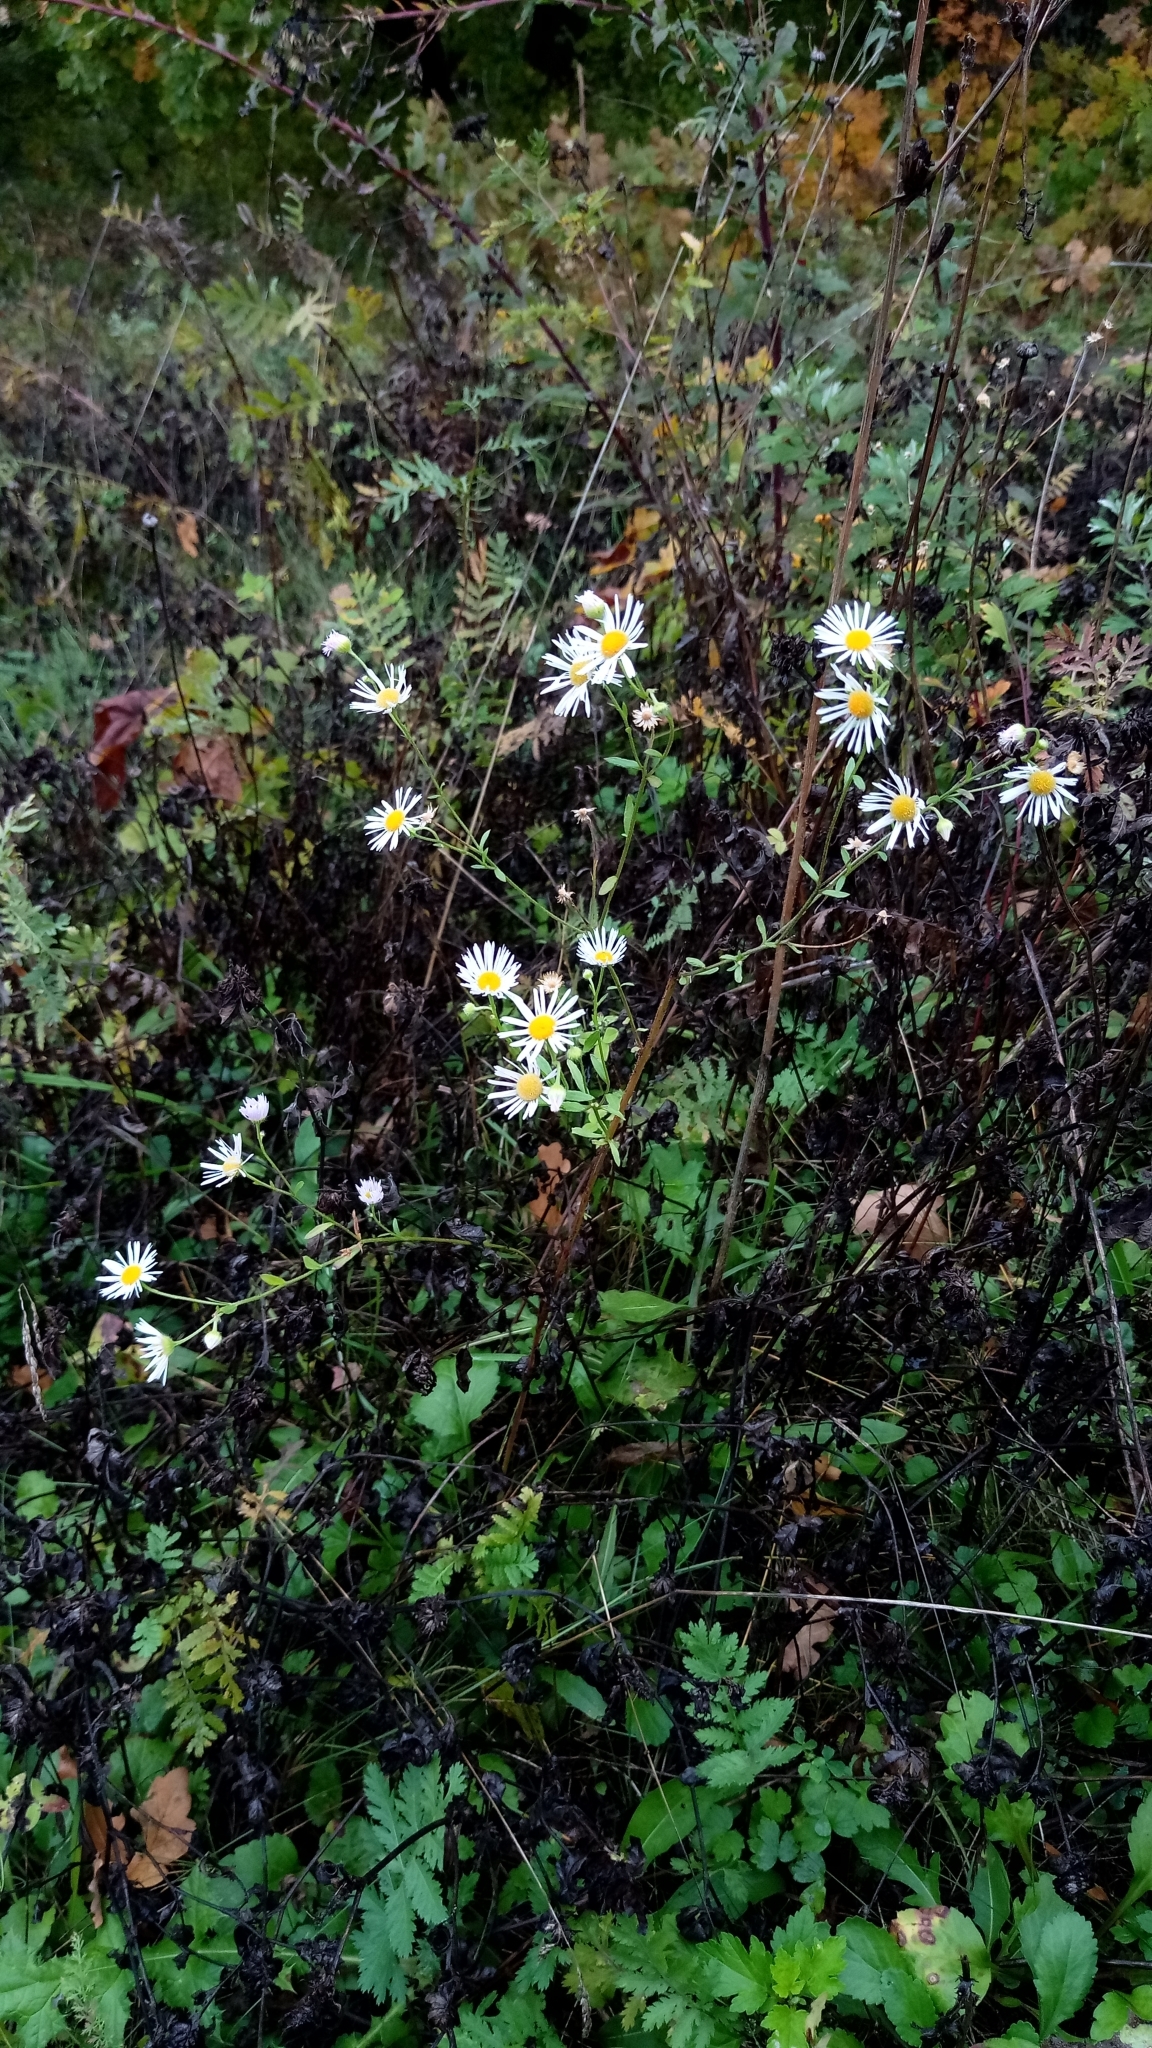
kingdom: Plantae
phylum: Tracheophyta
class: Magnoliopsida
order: Asterales
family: Asteraceae
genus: Erigeron
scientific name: Erigeron annuus
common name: Tall fleabane
